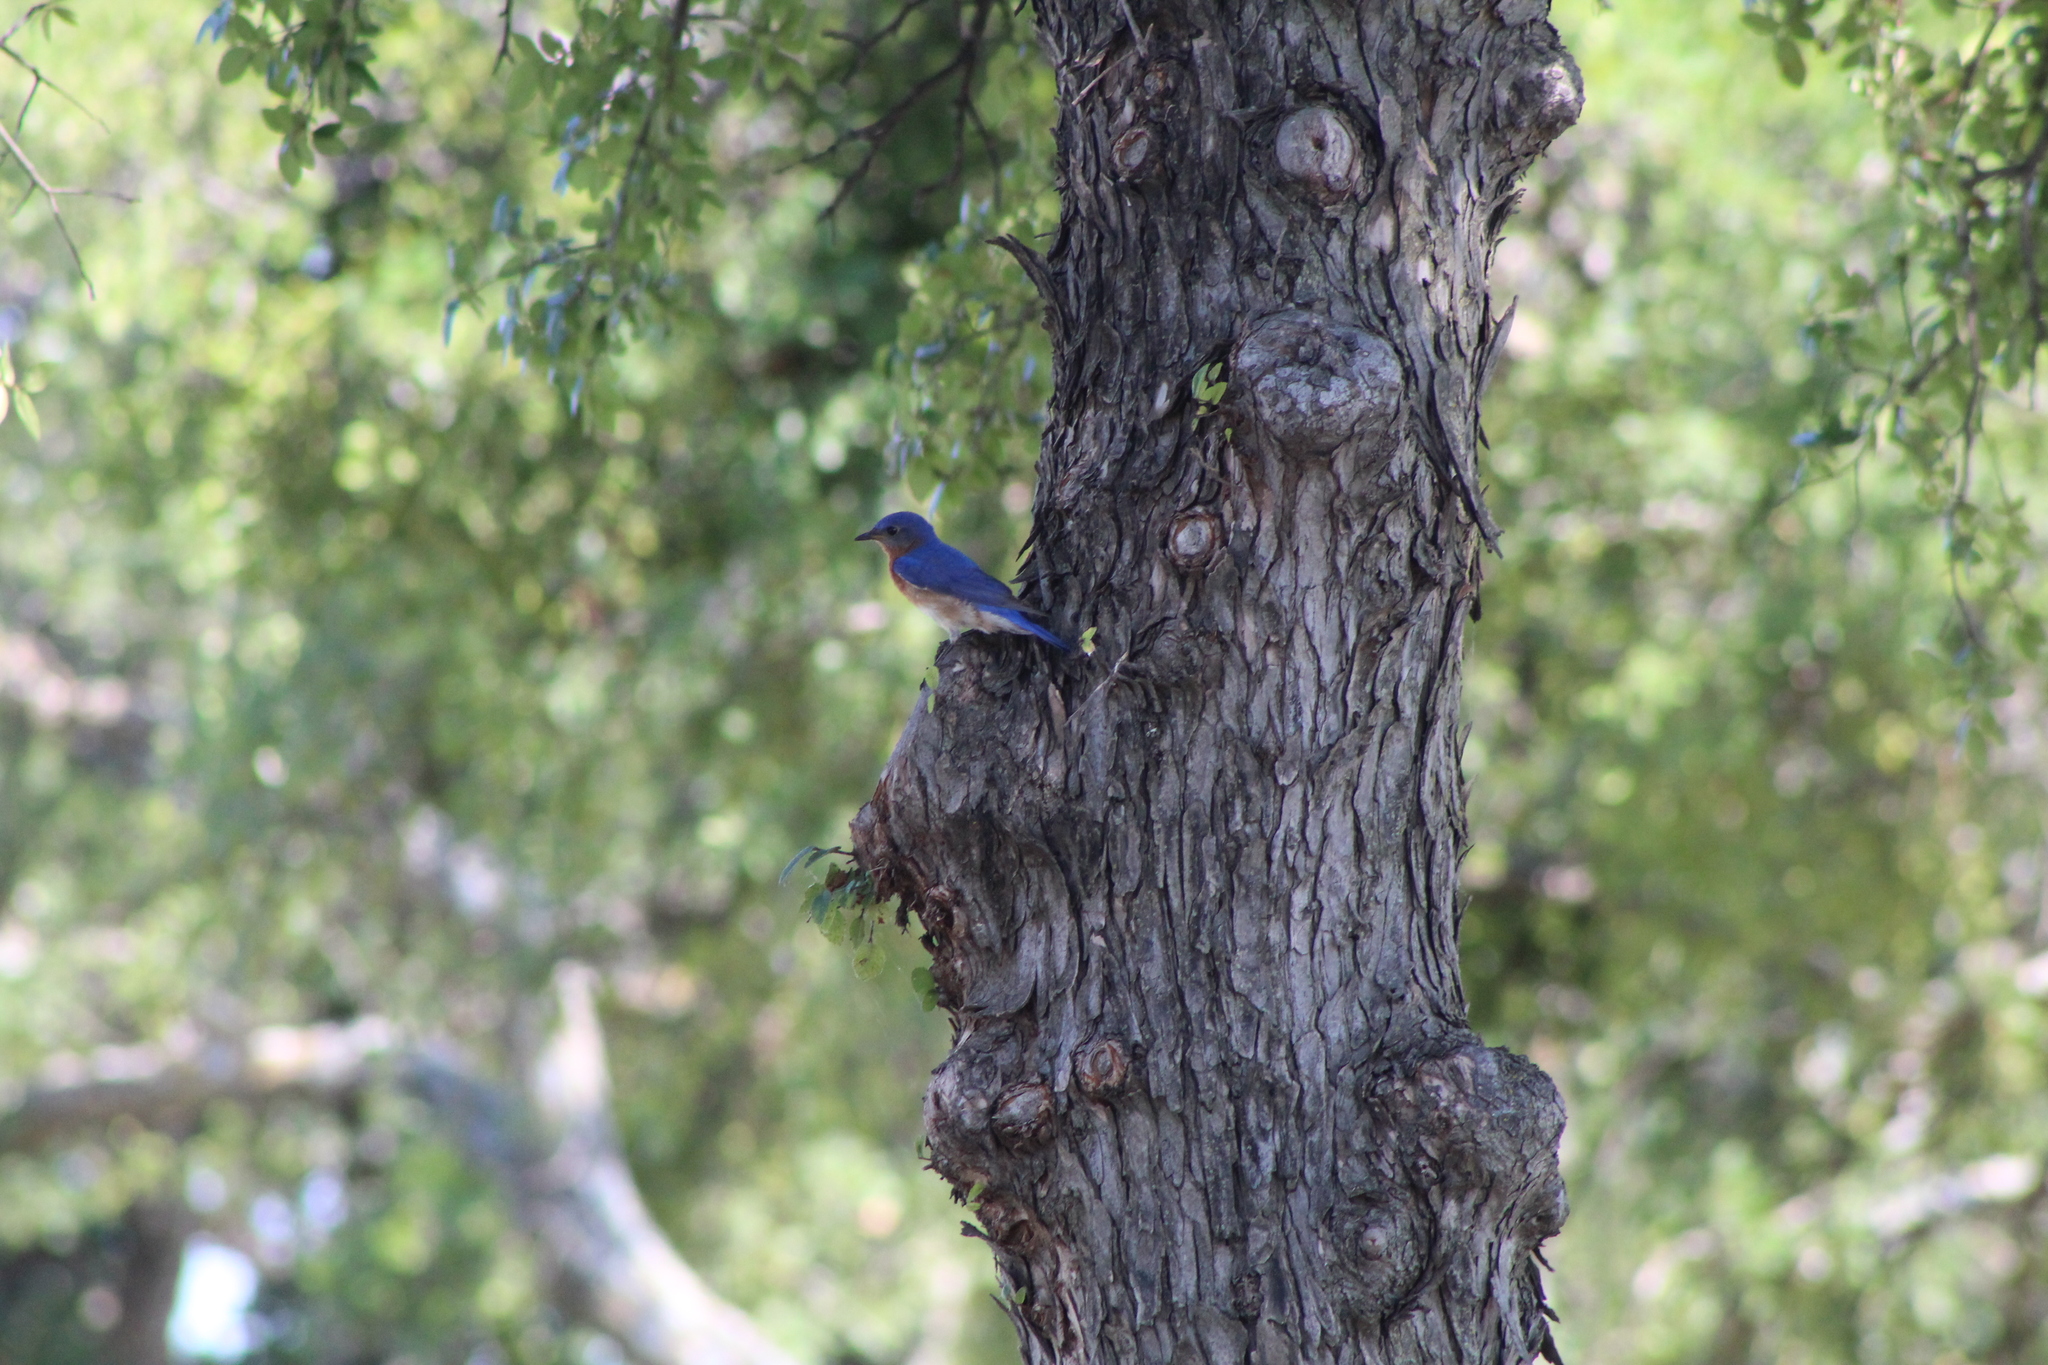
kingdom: Animalia
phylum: Chordata
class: Aves
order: Passeriformes
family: Turdidae
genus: Sialia
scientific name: Sialia sialis
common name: Eastern bluebird
